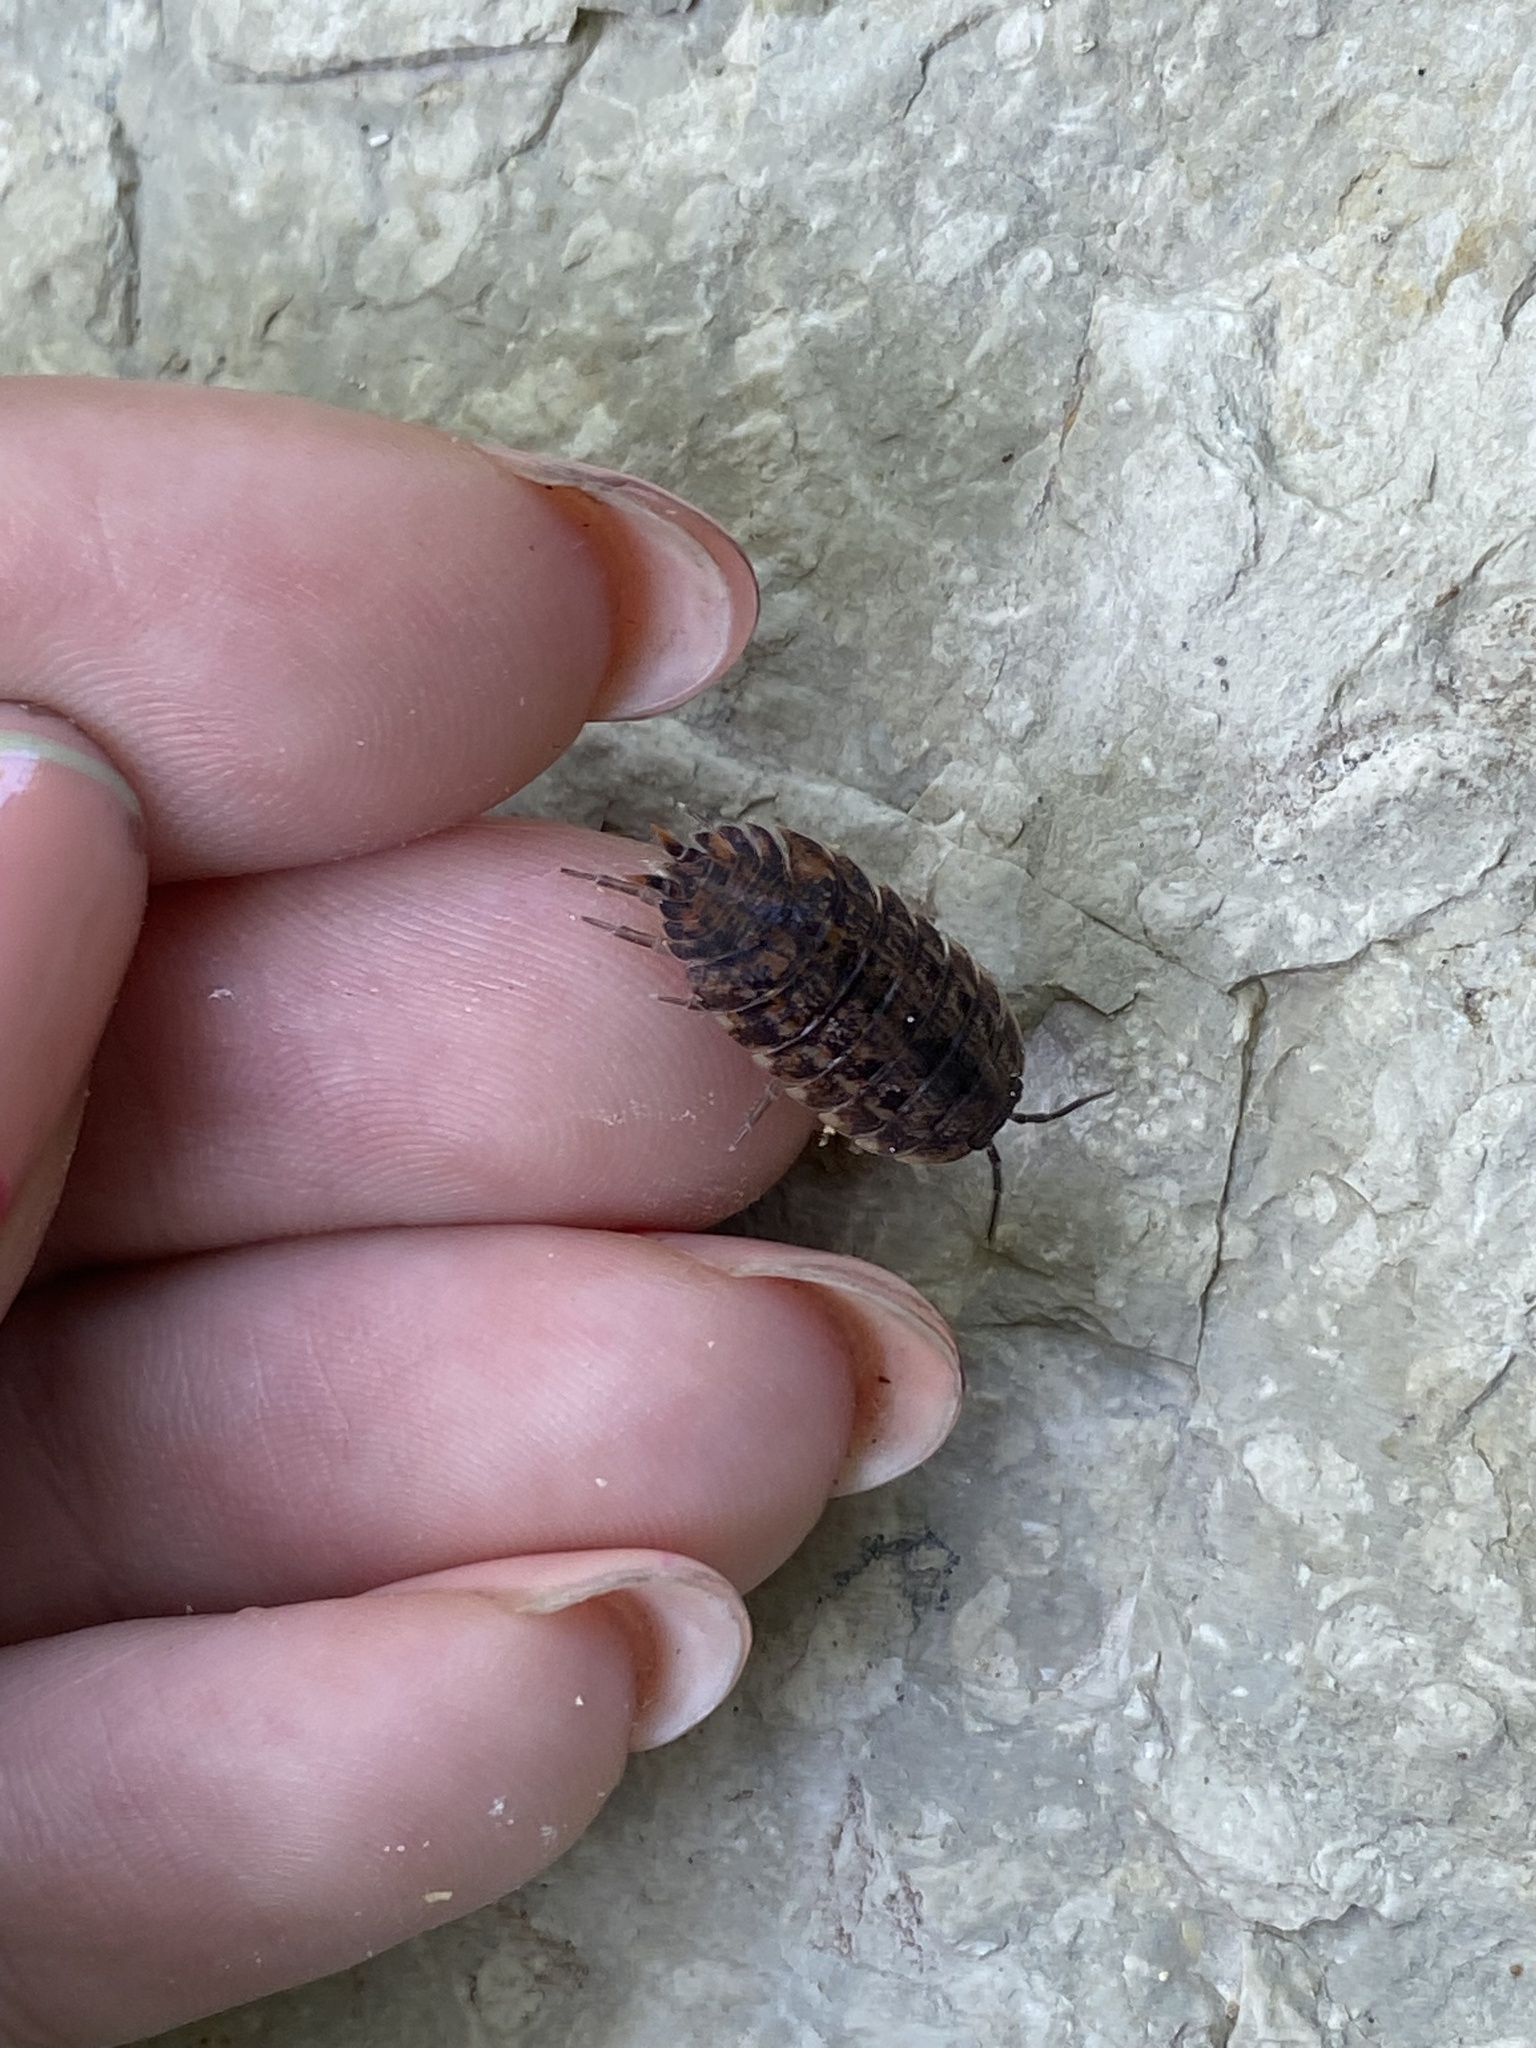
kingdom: Animalia
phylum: Arthropoda
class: Malacostraca
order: Isopoda
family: Trachelipodidae
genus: Trachelipus
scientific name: Trachelipus lutshnikii
